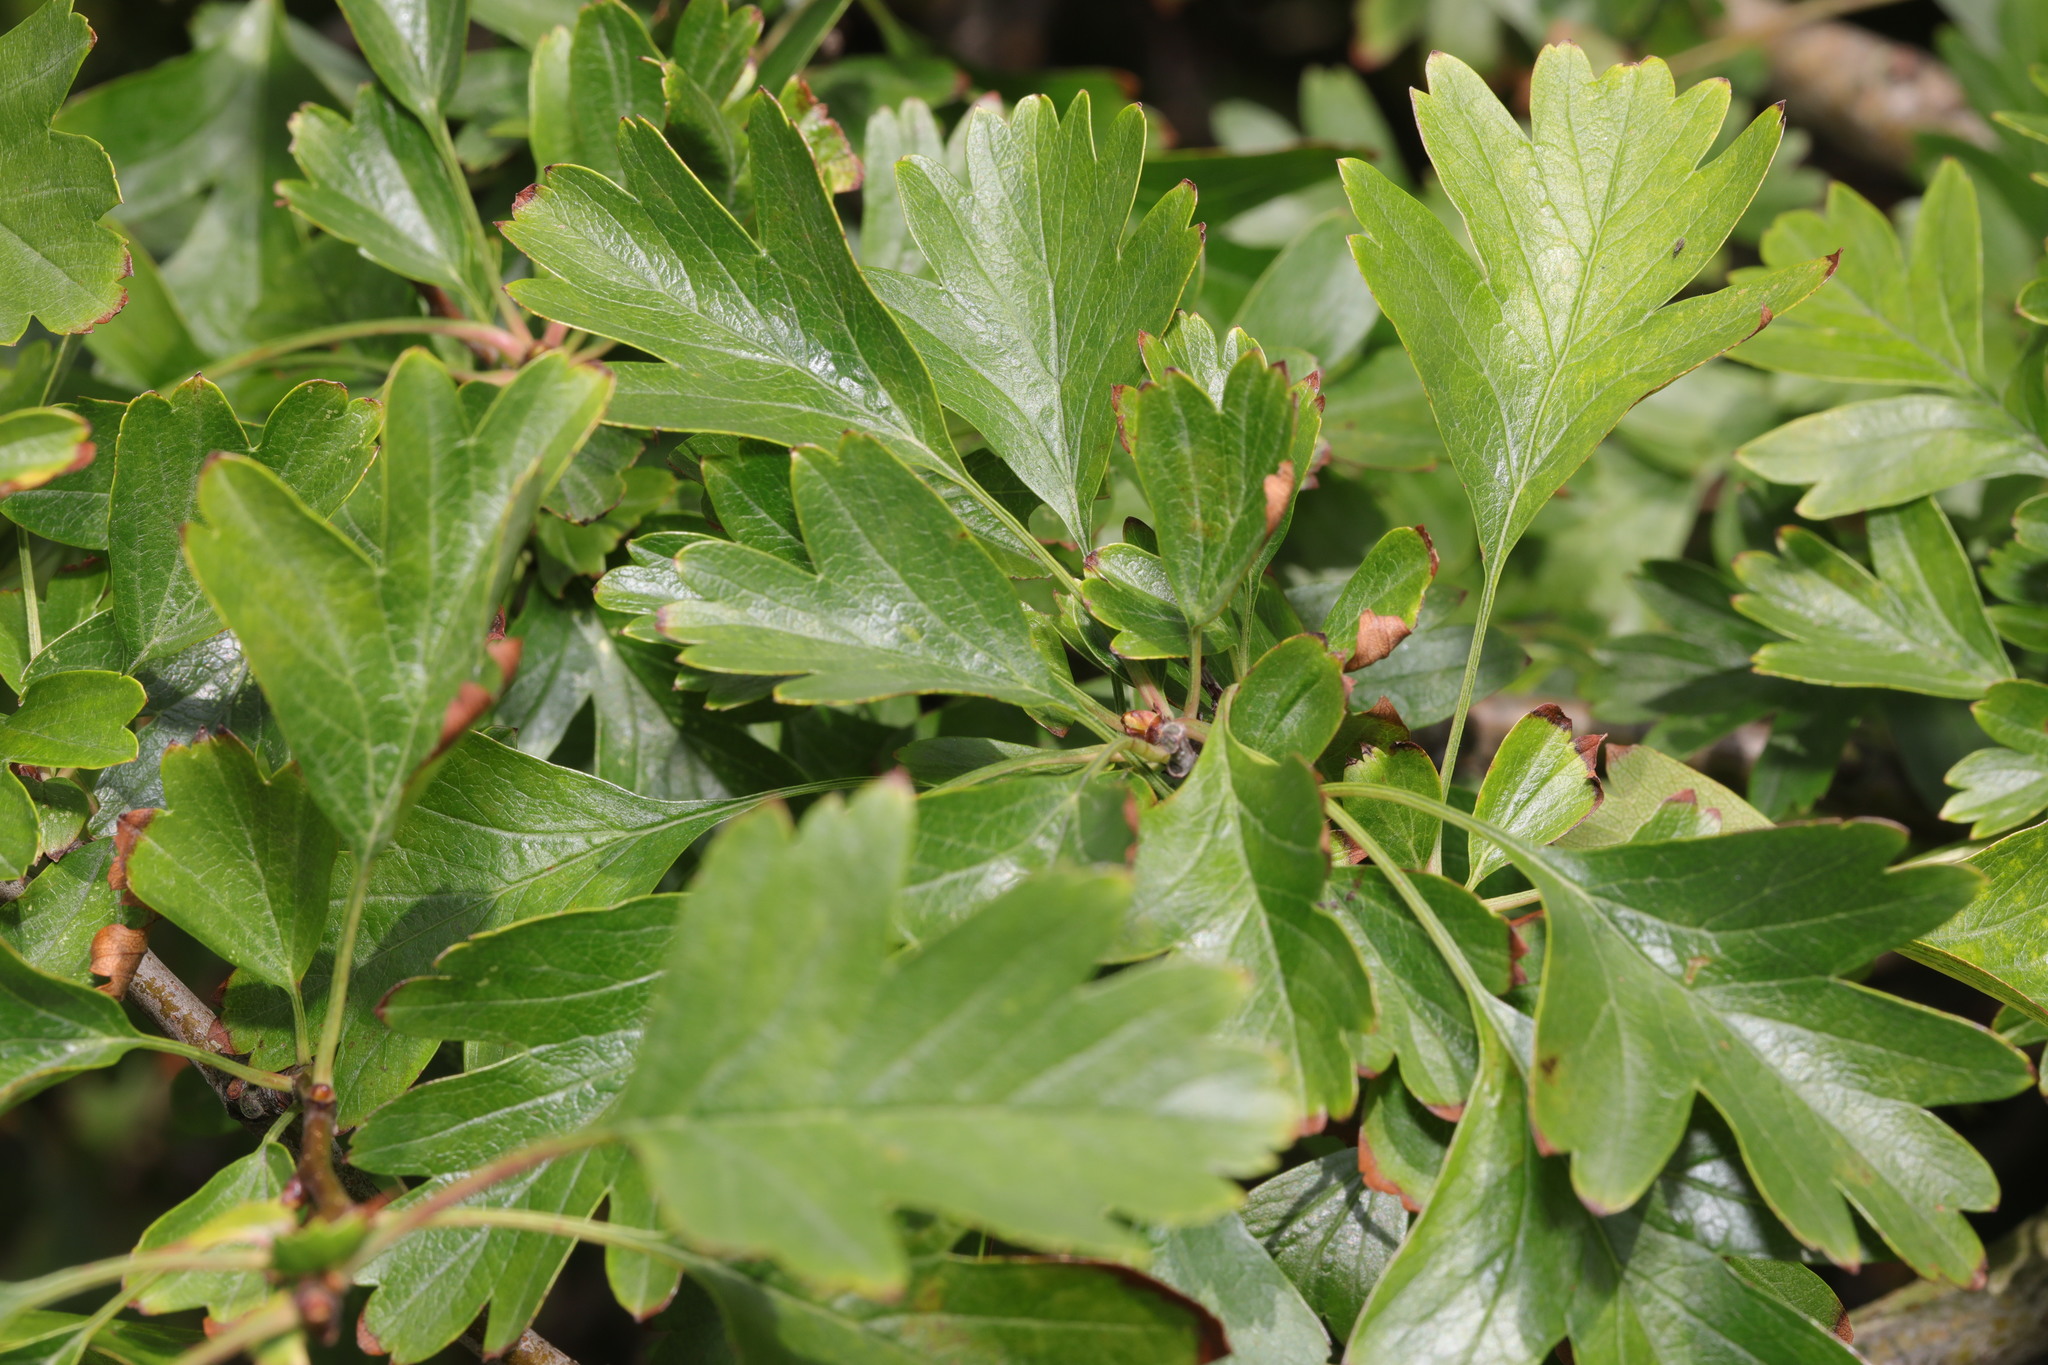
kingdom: Plantae
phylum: Tracheophyta
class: Magnoliopsida
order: Rosales
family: Rosaceae
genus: Crataegus
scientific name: Crataegus monogyna
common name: Hawthorn
